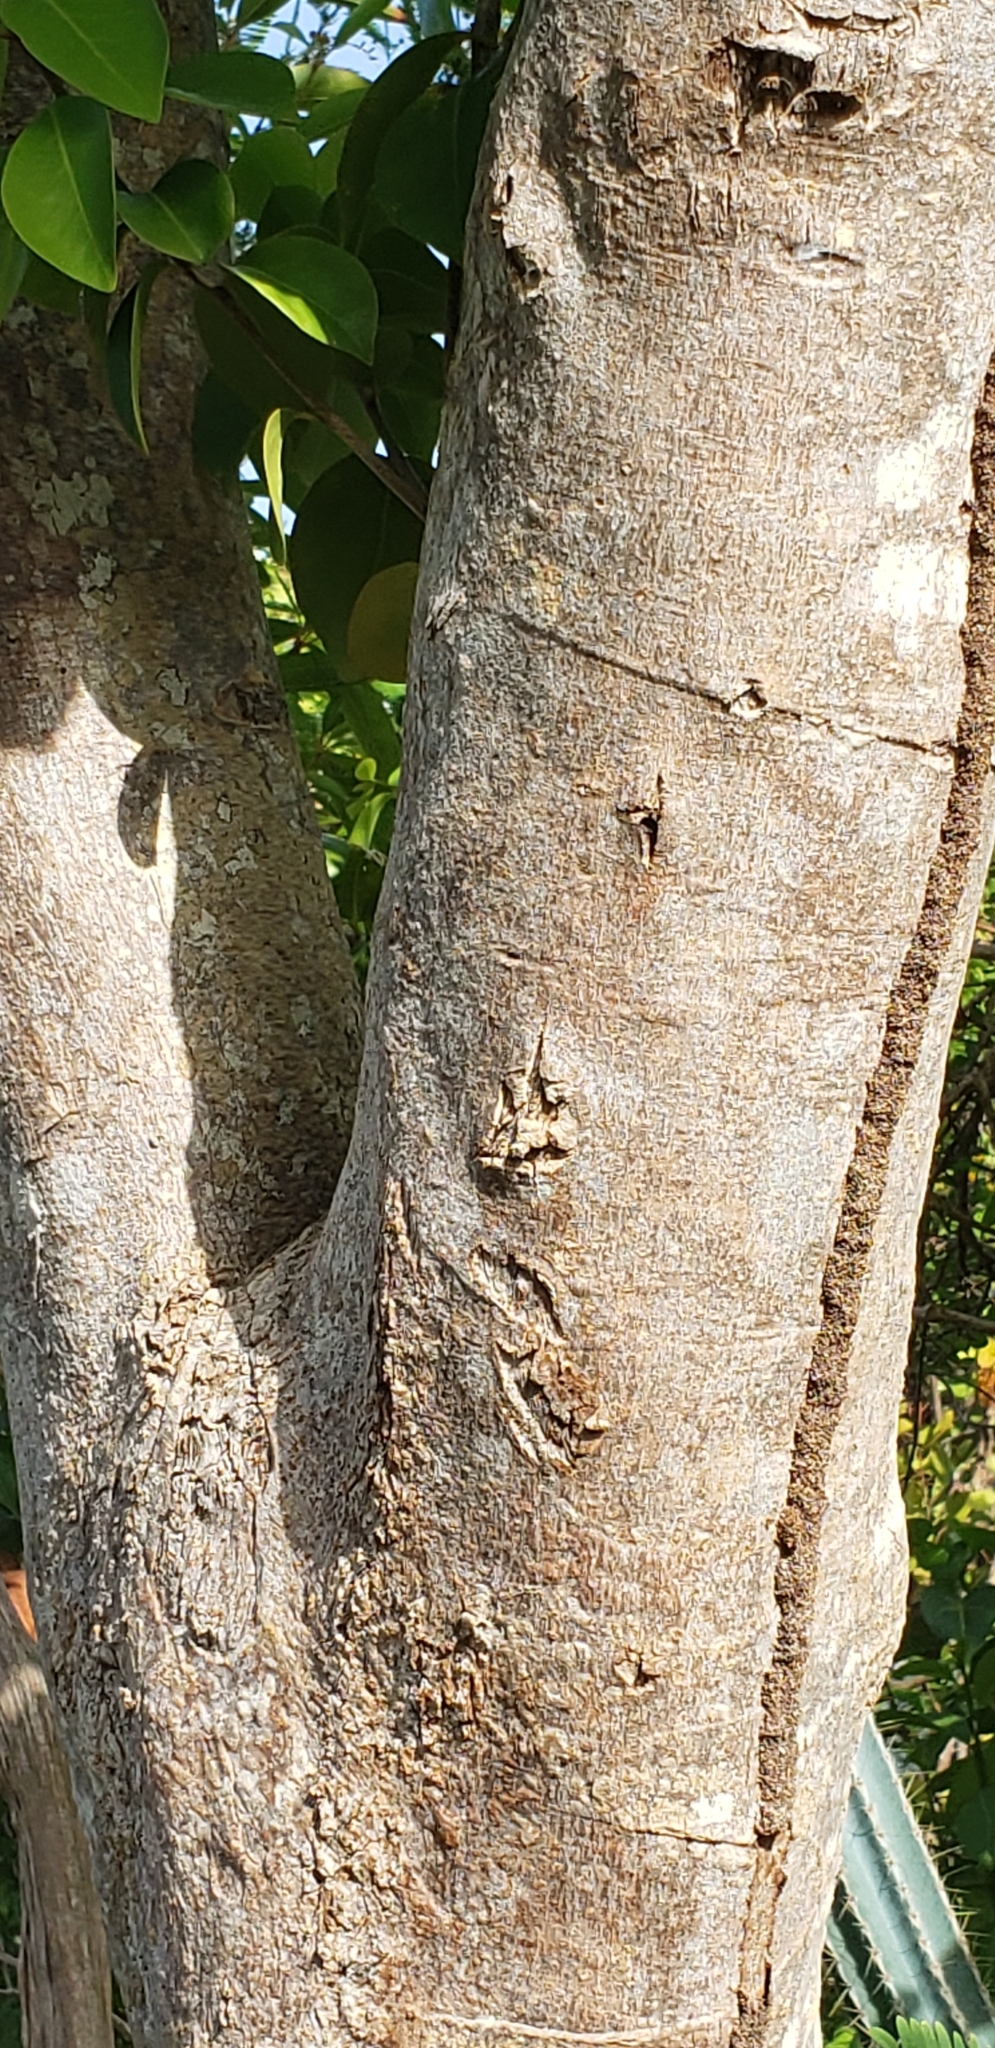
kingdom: Plantae
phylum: Tracheophyta
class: Magnoliopsida
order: Caryophyllales
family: Nyctaginaceae
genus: Guapira
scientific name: Guapira fragrans
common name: Black loblolly tree
